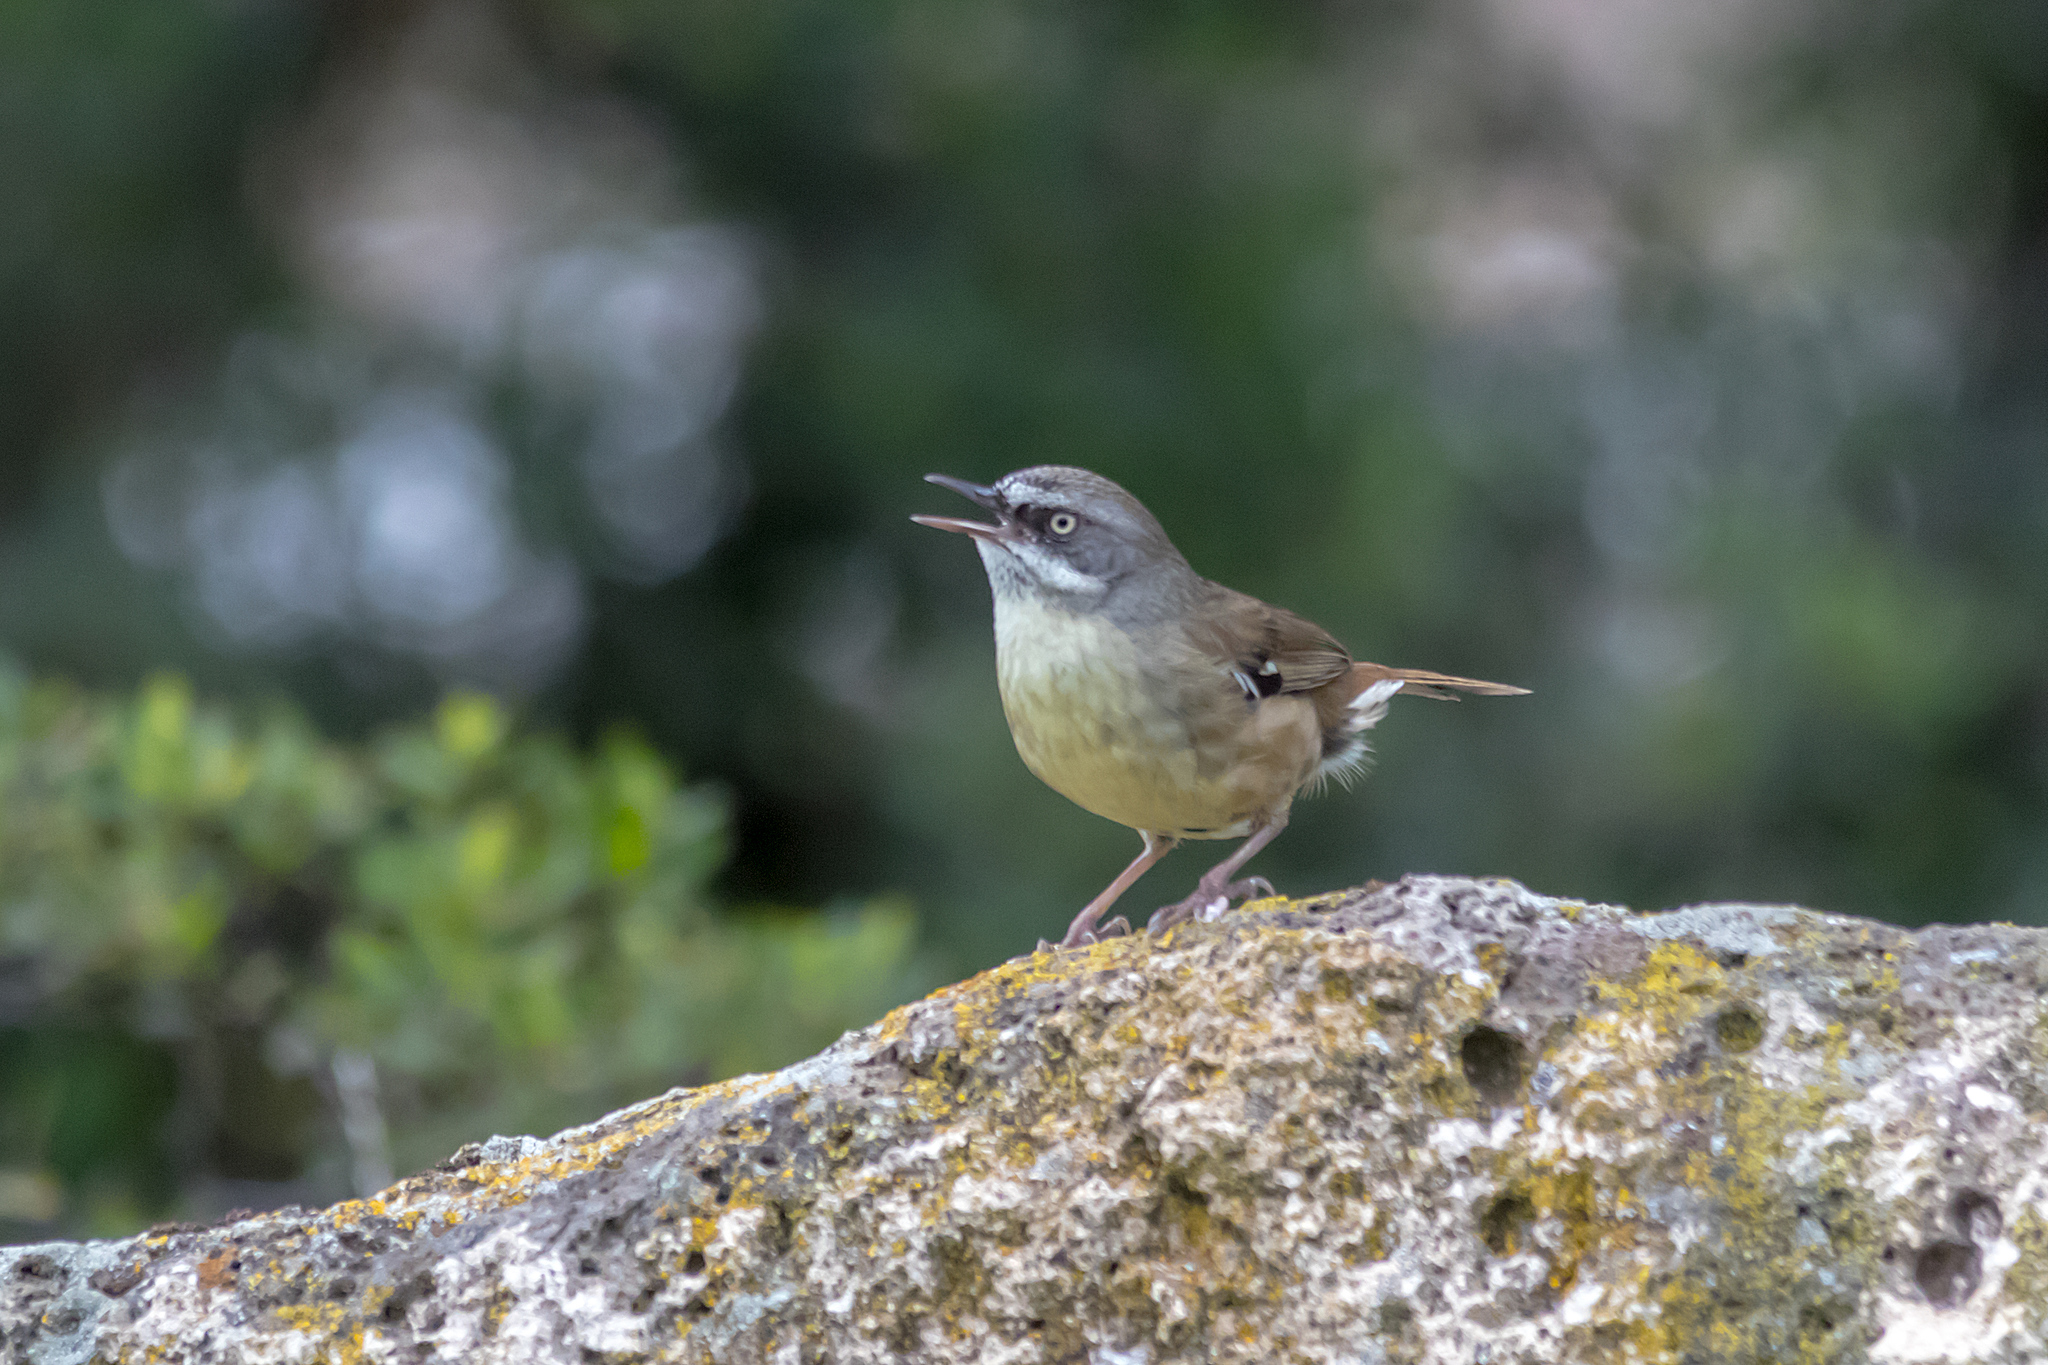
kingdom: Animalia
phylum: Chordata
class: Aves
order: Passeriformes
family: Acanthizidae
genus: Sericornis
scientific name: Sericornis frontalis
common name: White-browed scrubwren
